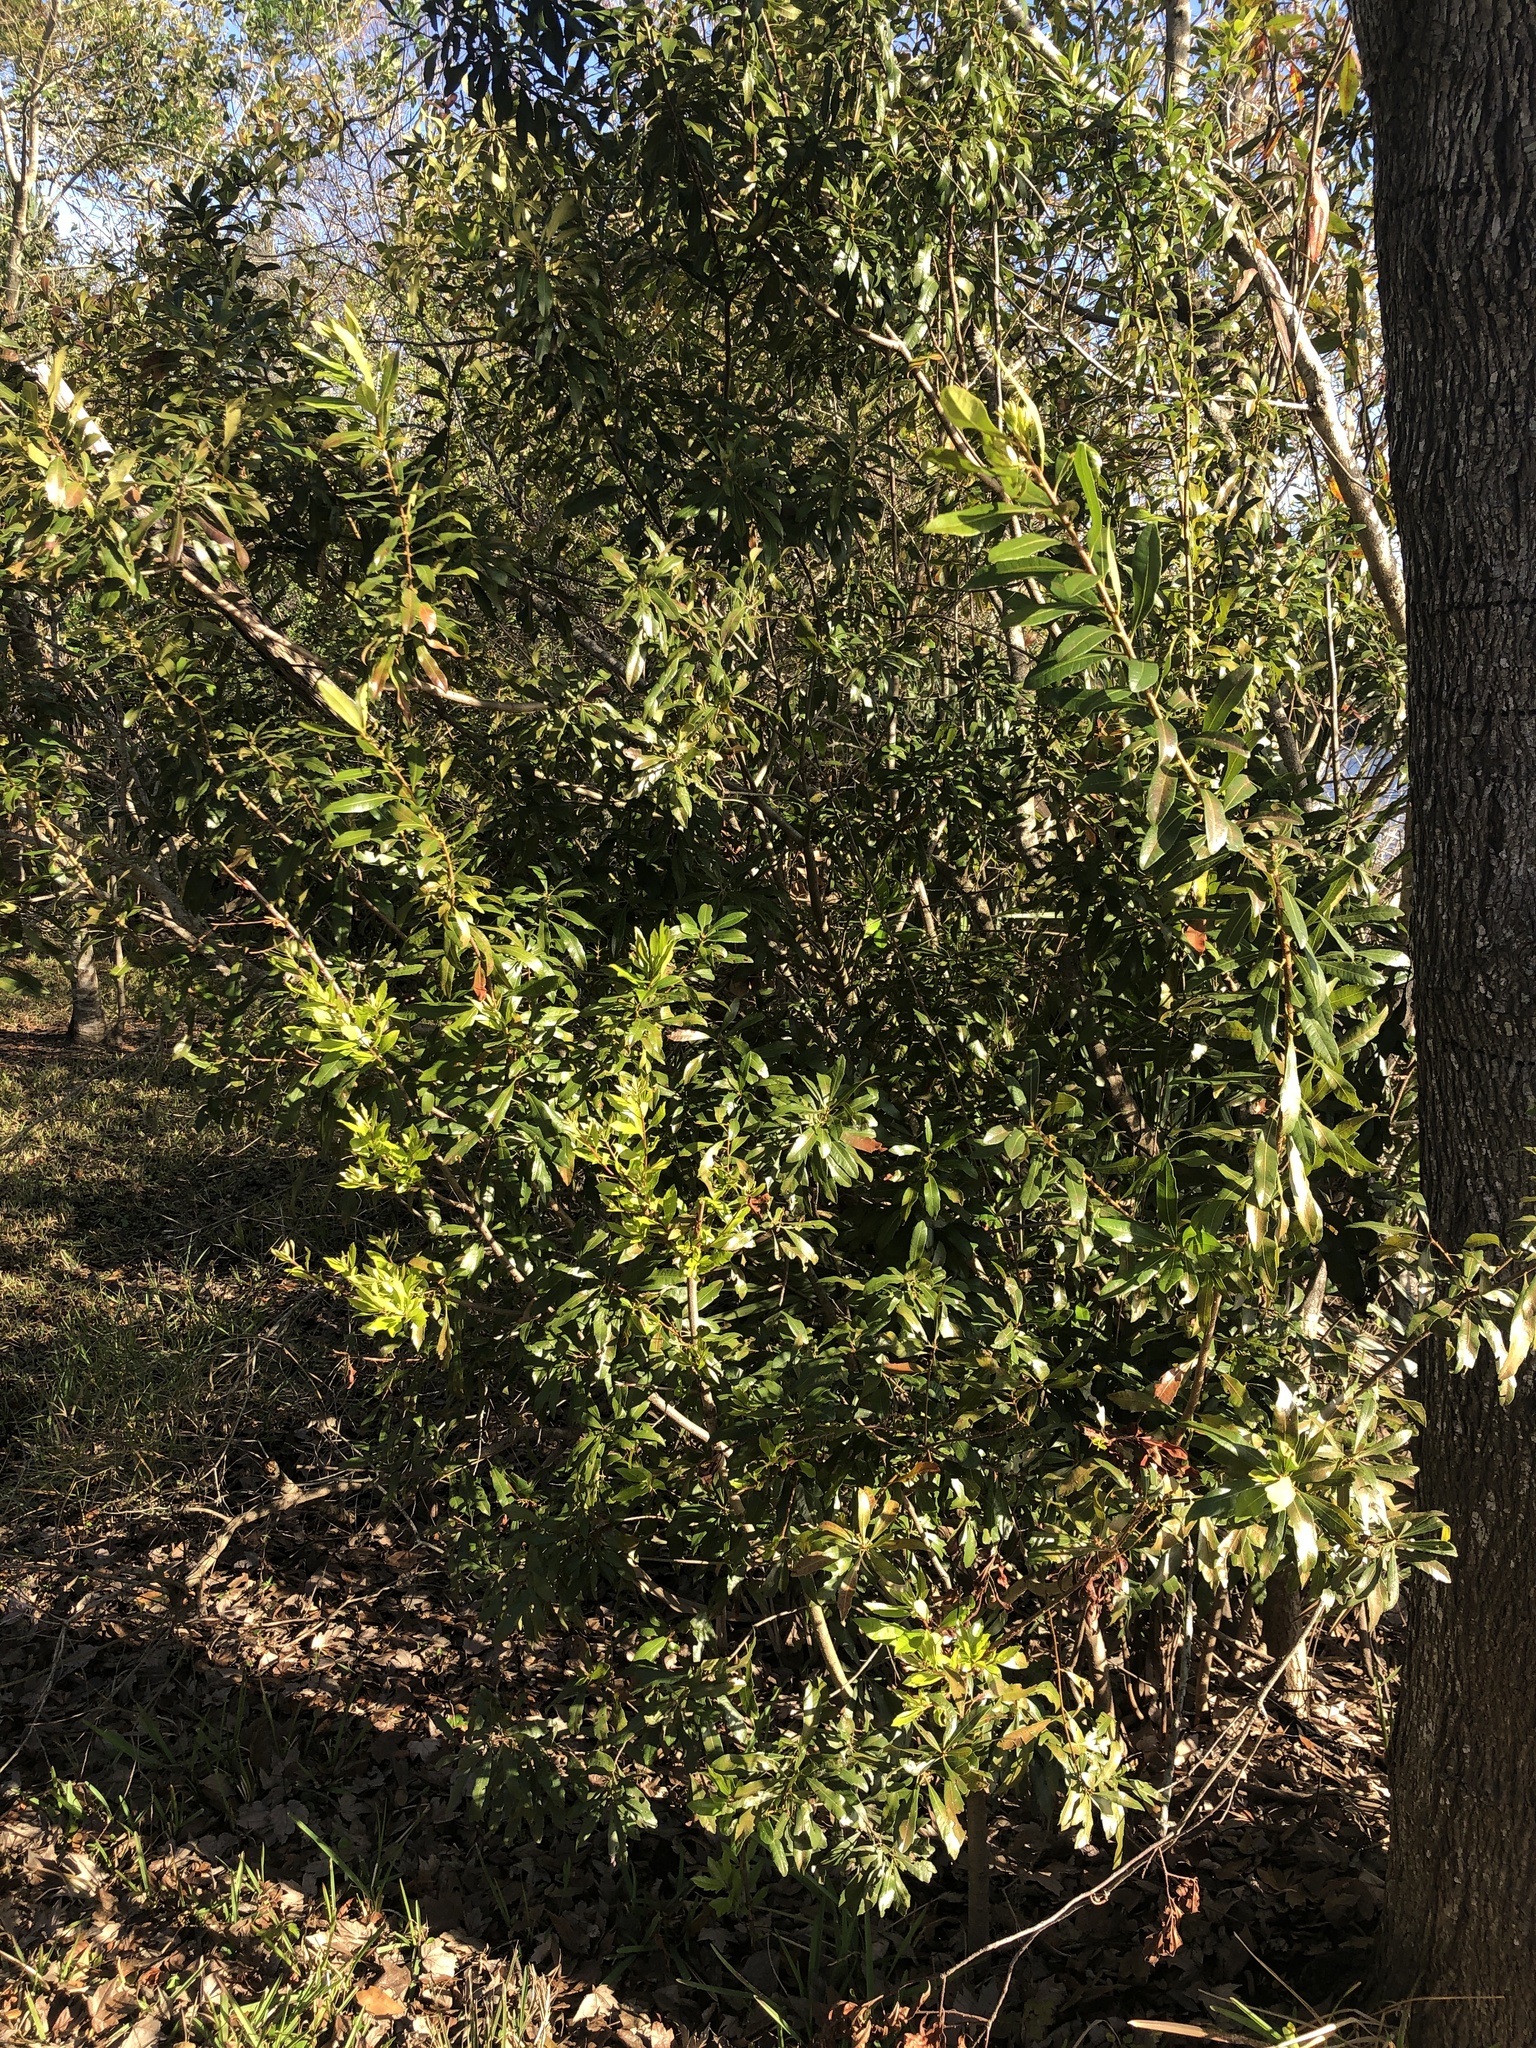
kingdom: Plantae
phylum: Tracheophyta
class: Magnoliopsida
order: Fagales
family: Myricaceae
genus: Morella
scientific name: Morella cerifera
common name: Wax myrtle
